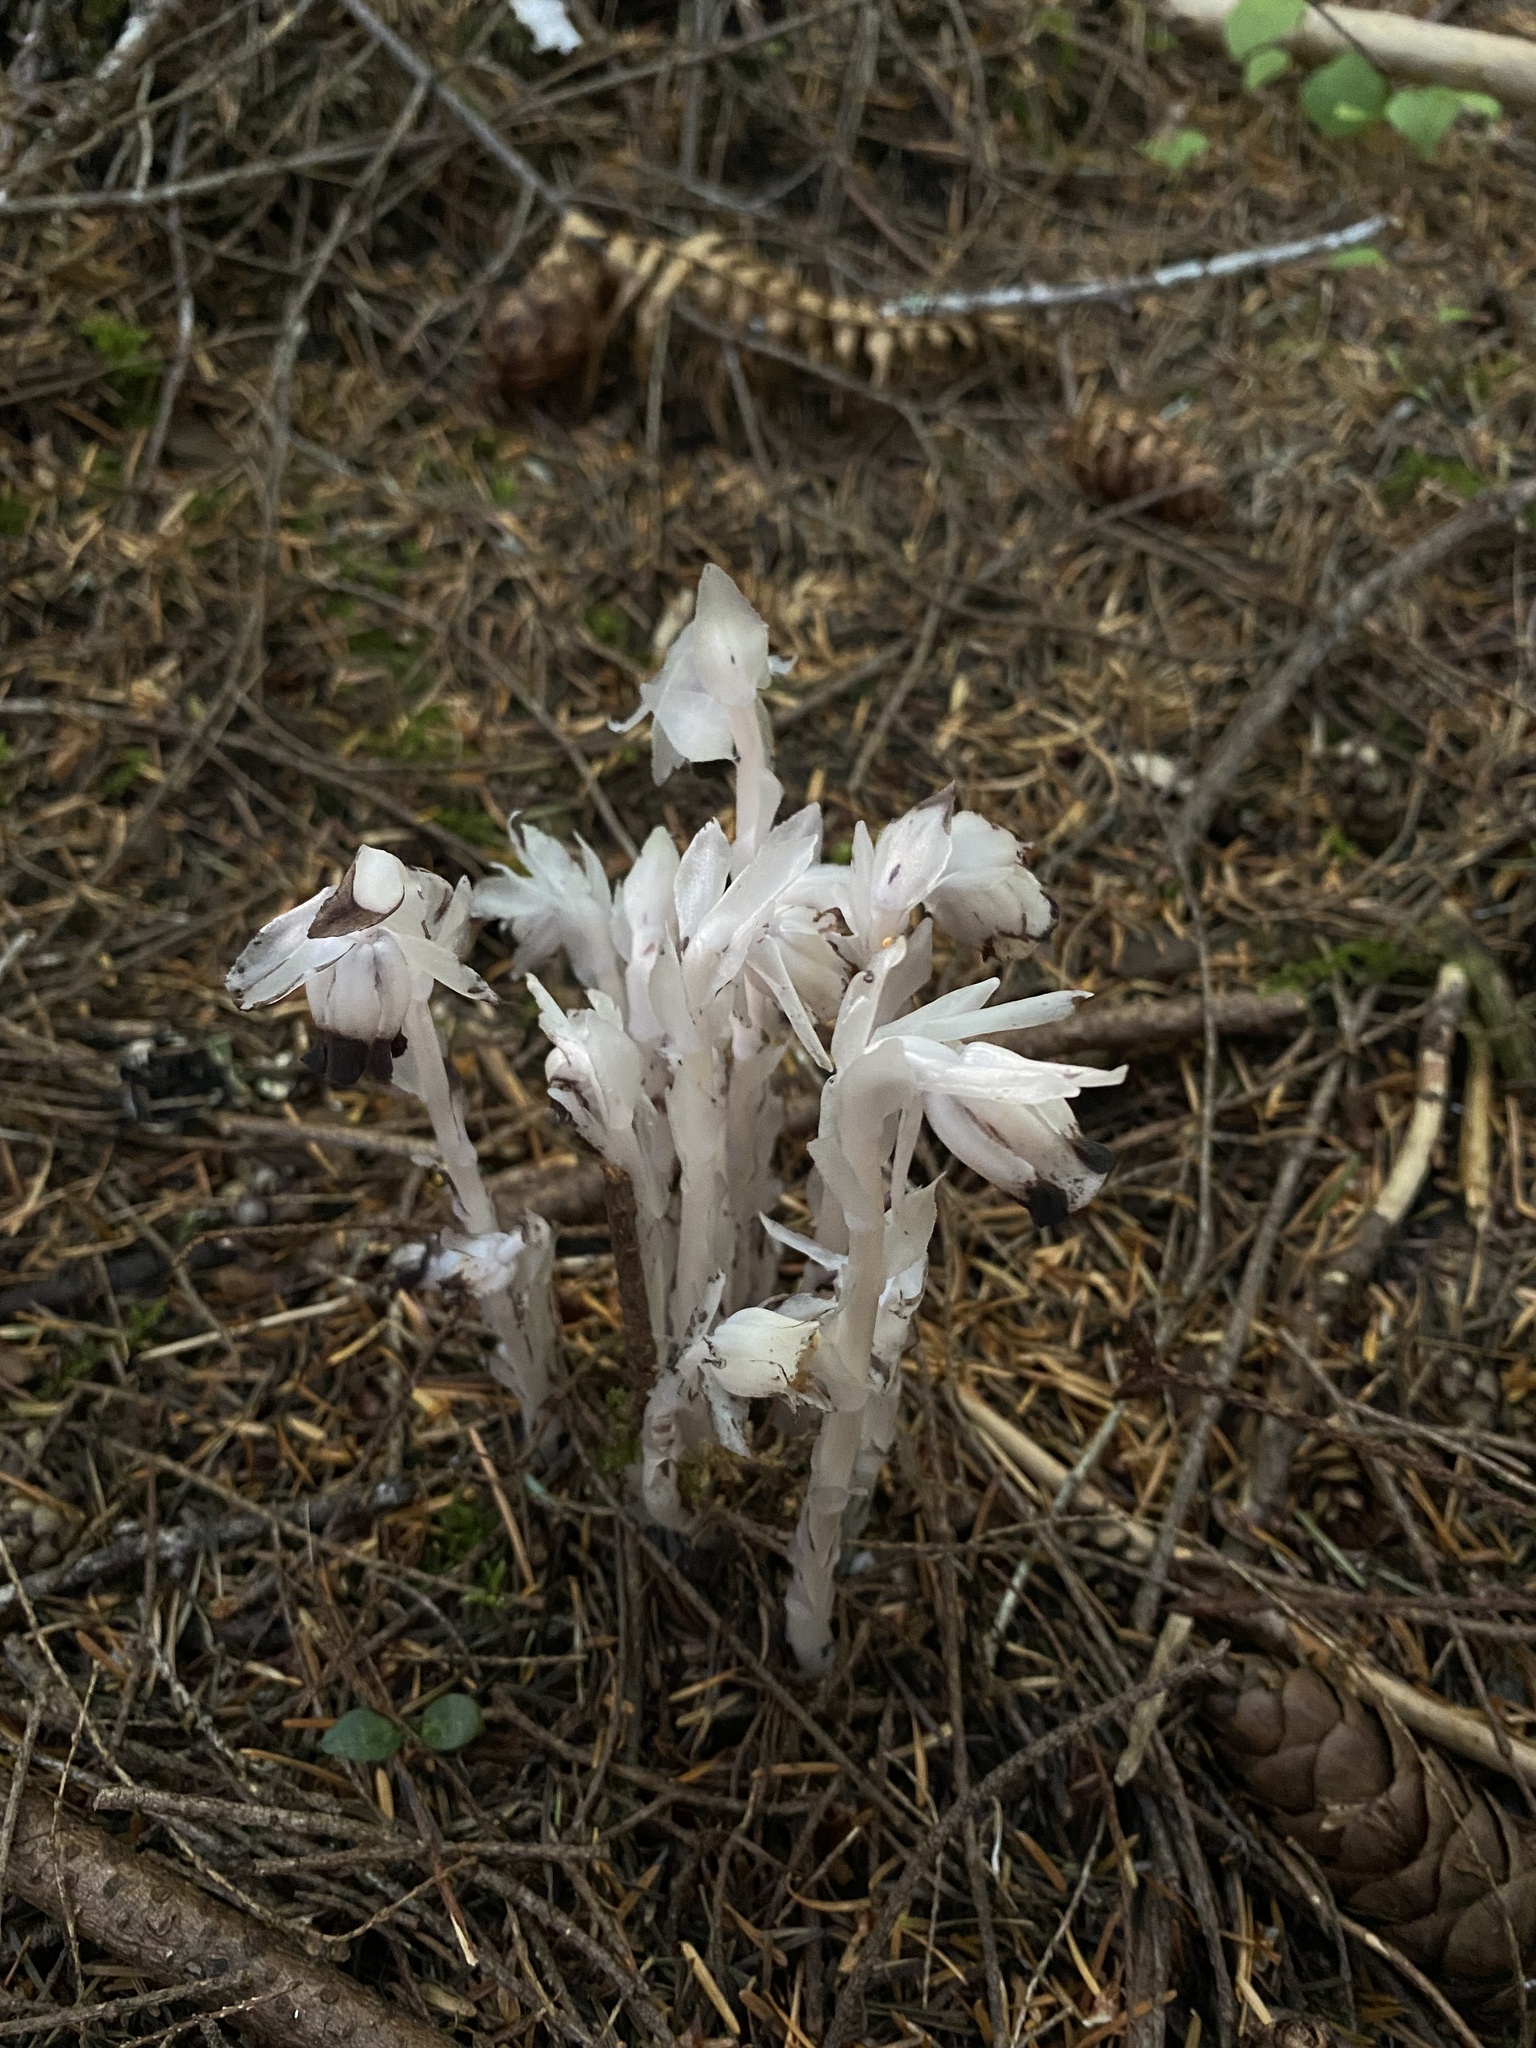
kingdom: Plantae
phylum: Tracheophyta
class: Magnoliopsida
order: Ericales
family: Ericaceae
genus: Monotropa
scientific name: Monotropa uniflora
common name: Convulsion root
